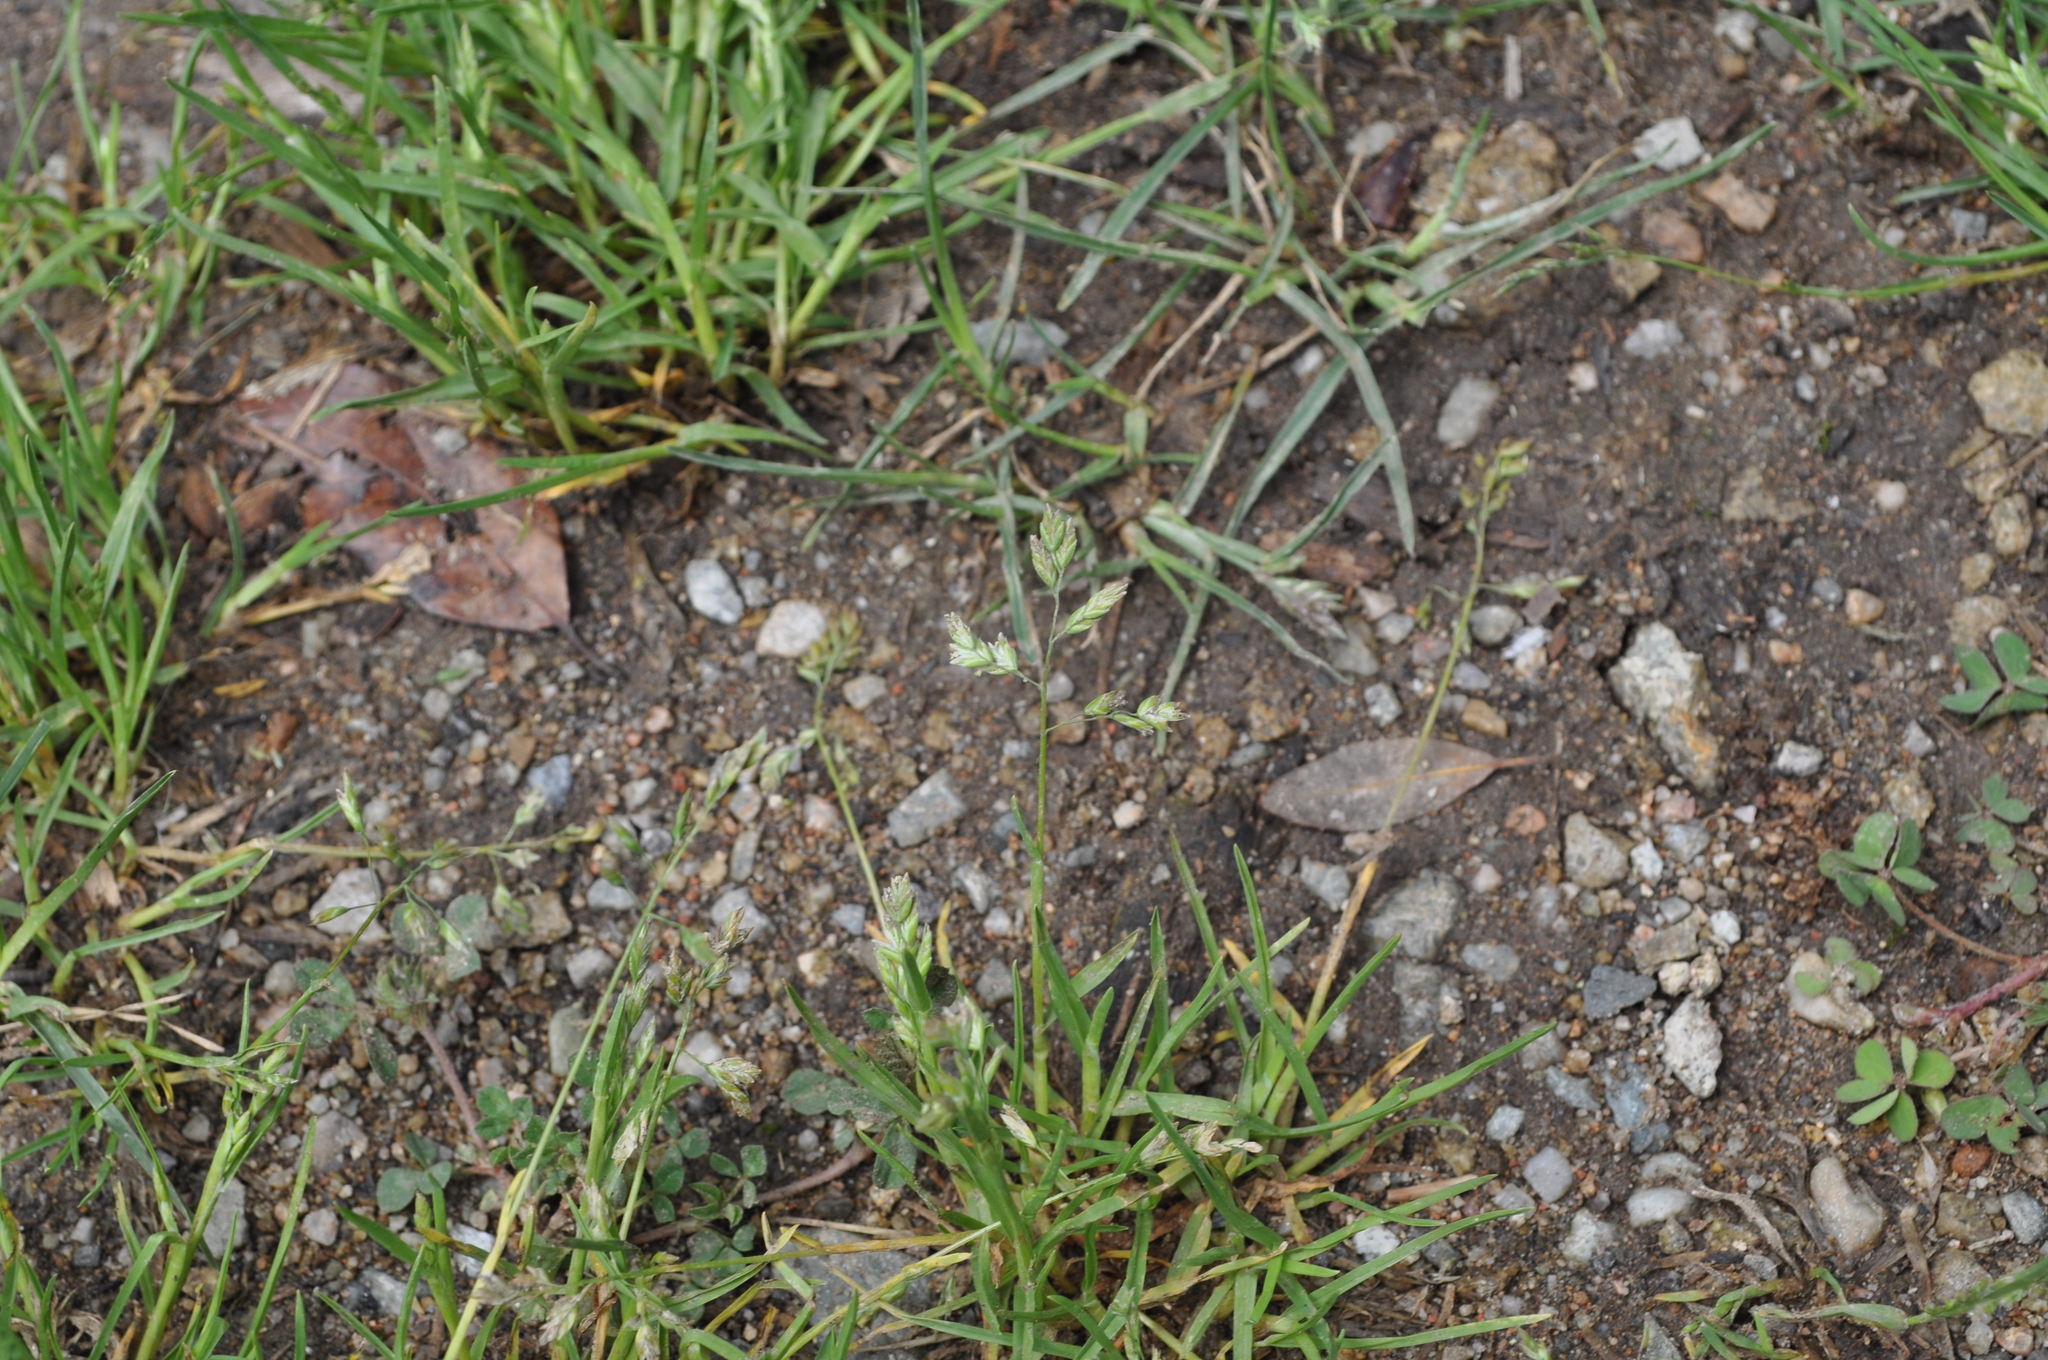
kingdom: Plantae
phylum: Tracheophyta
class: Liliopsida
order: Poales
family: Poaceae
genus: Poa
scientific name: Poa annua
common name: Annual bluegrass
